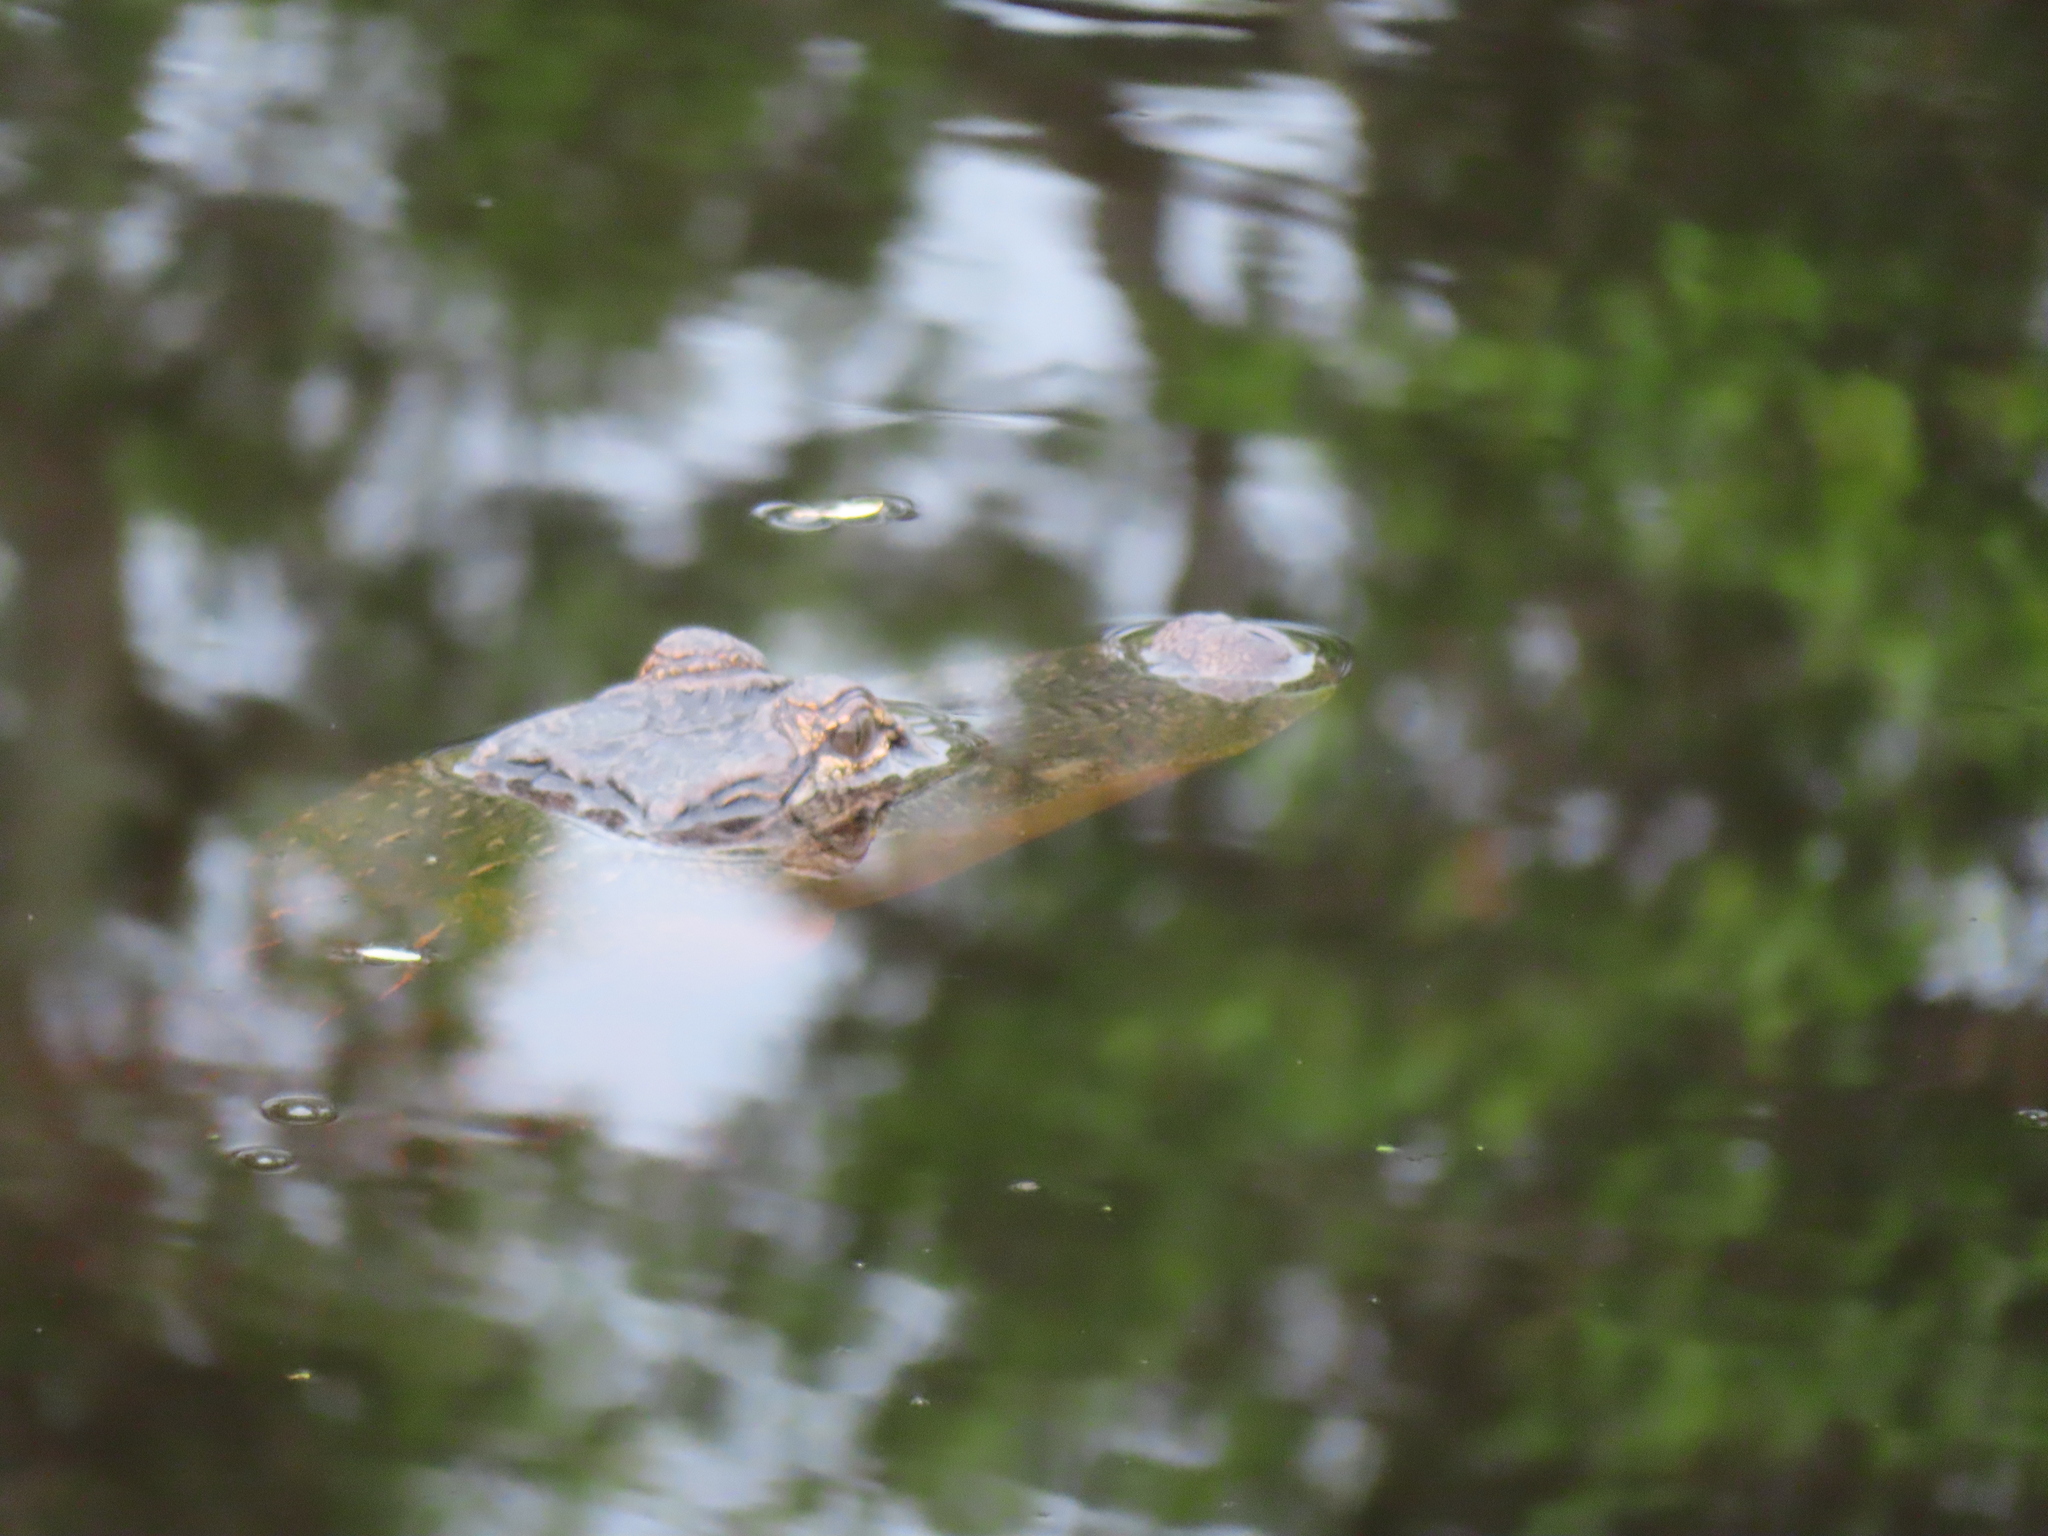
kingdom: Animalia
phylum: Chordata
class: Crocodylia
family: Alligatoridae
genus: Alligator
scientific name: Alligator mississippiensis
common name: American alligator
